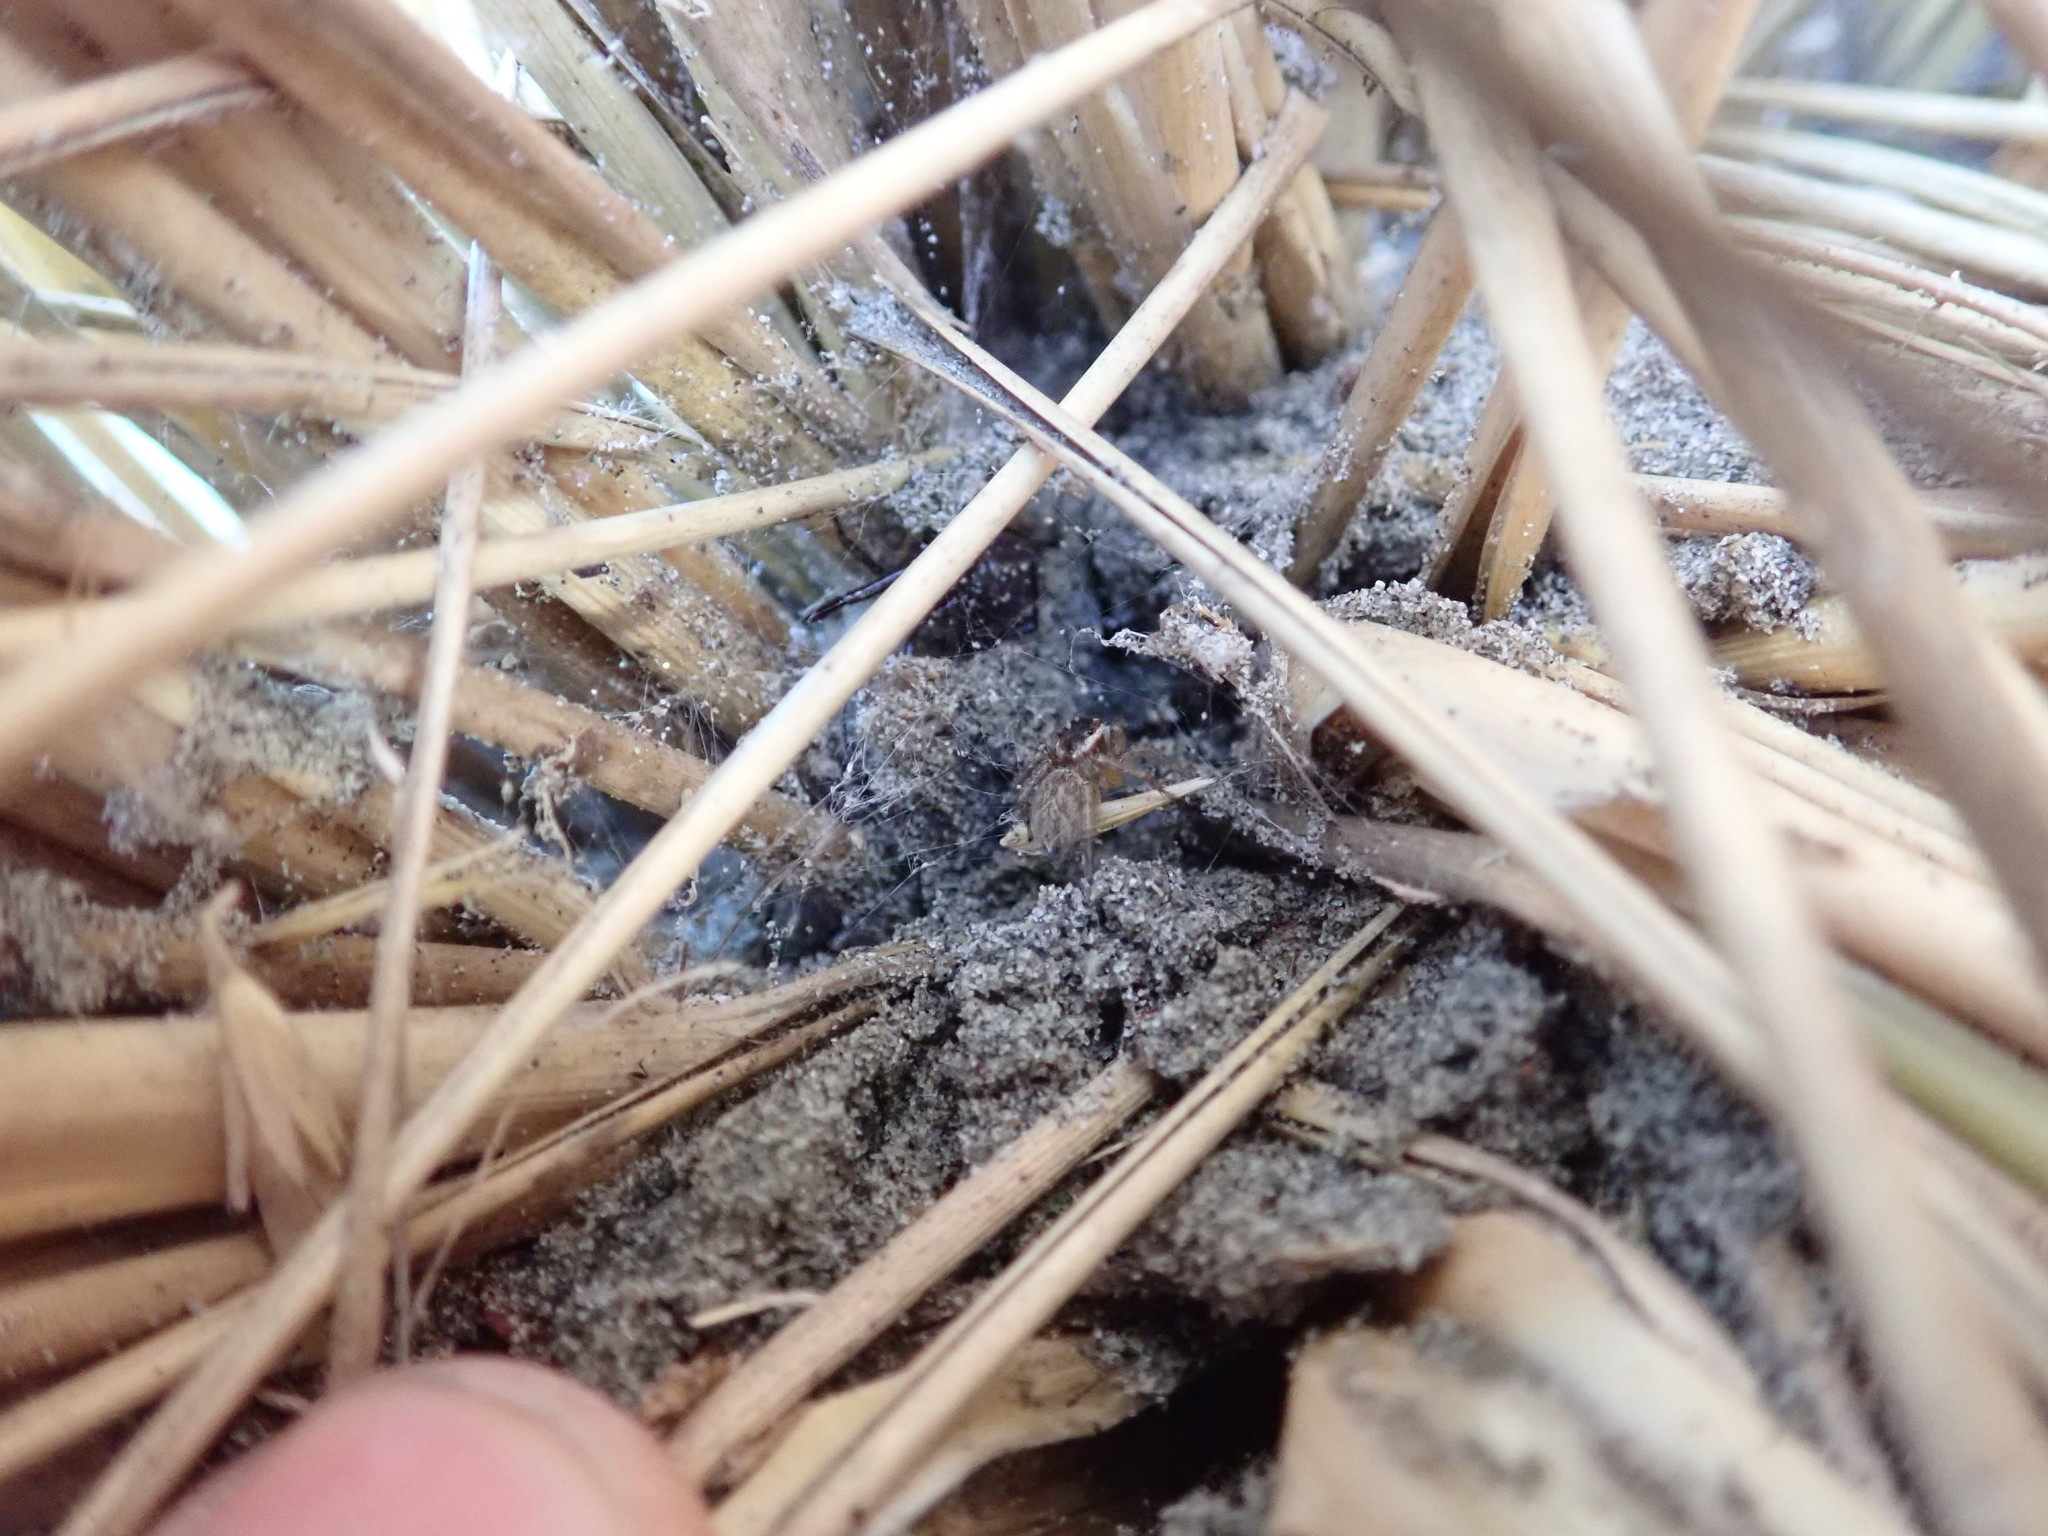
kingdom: Animalia
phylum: Arthropoda
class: Arachnida
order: Araneae
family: Salticidae
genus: Maratus
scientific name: Maratus griseus
